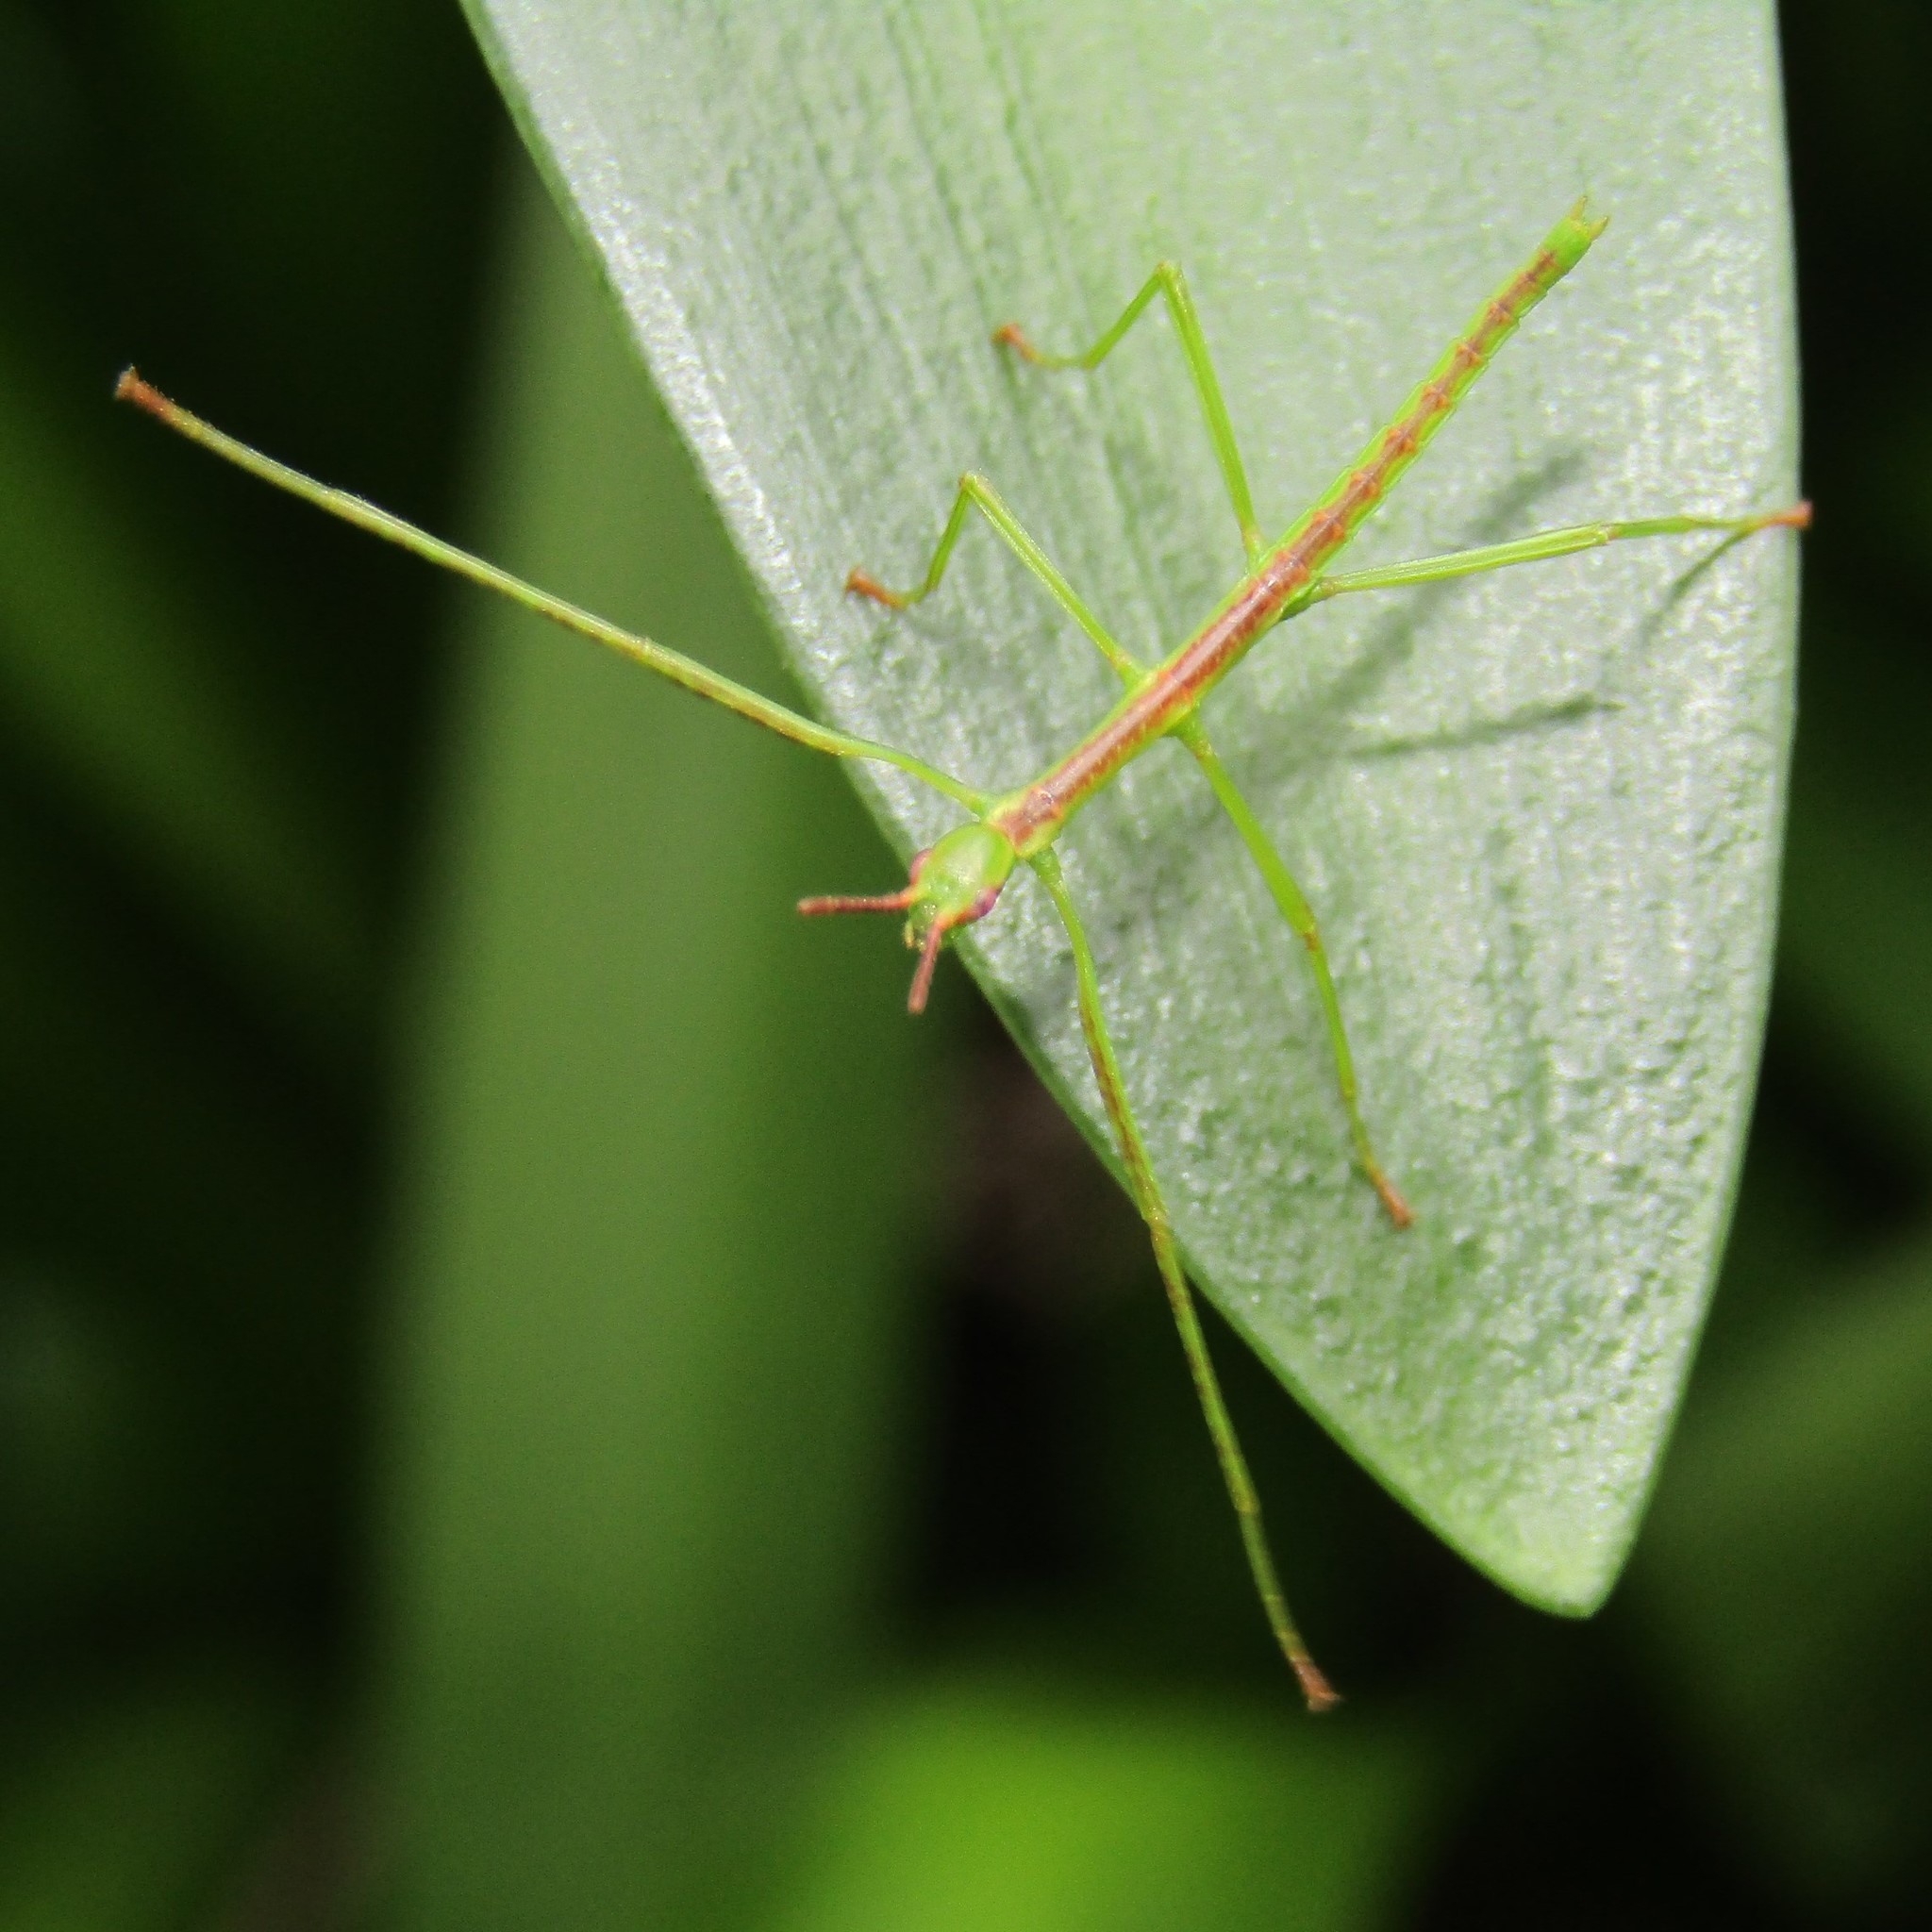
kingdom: Animalia
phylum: Arthropoda
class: Insecta
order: Phasmida
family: Phasmatidae
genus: Clitarchus
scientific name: Clitarchus hookeri
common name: Smooth stick insect
